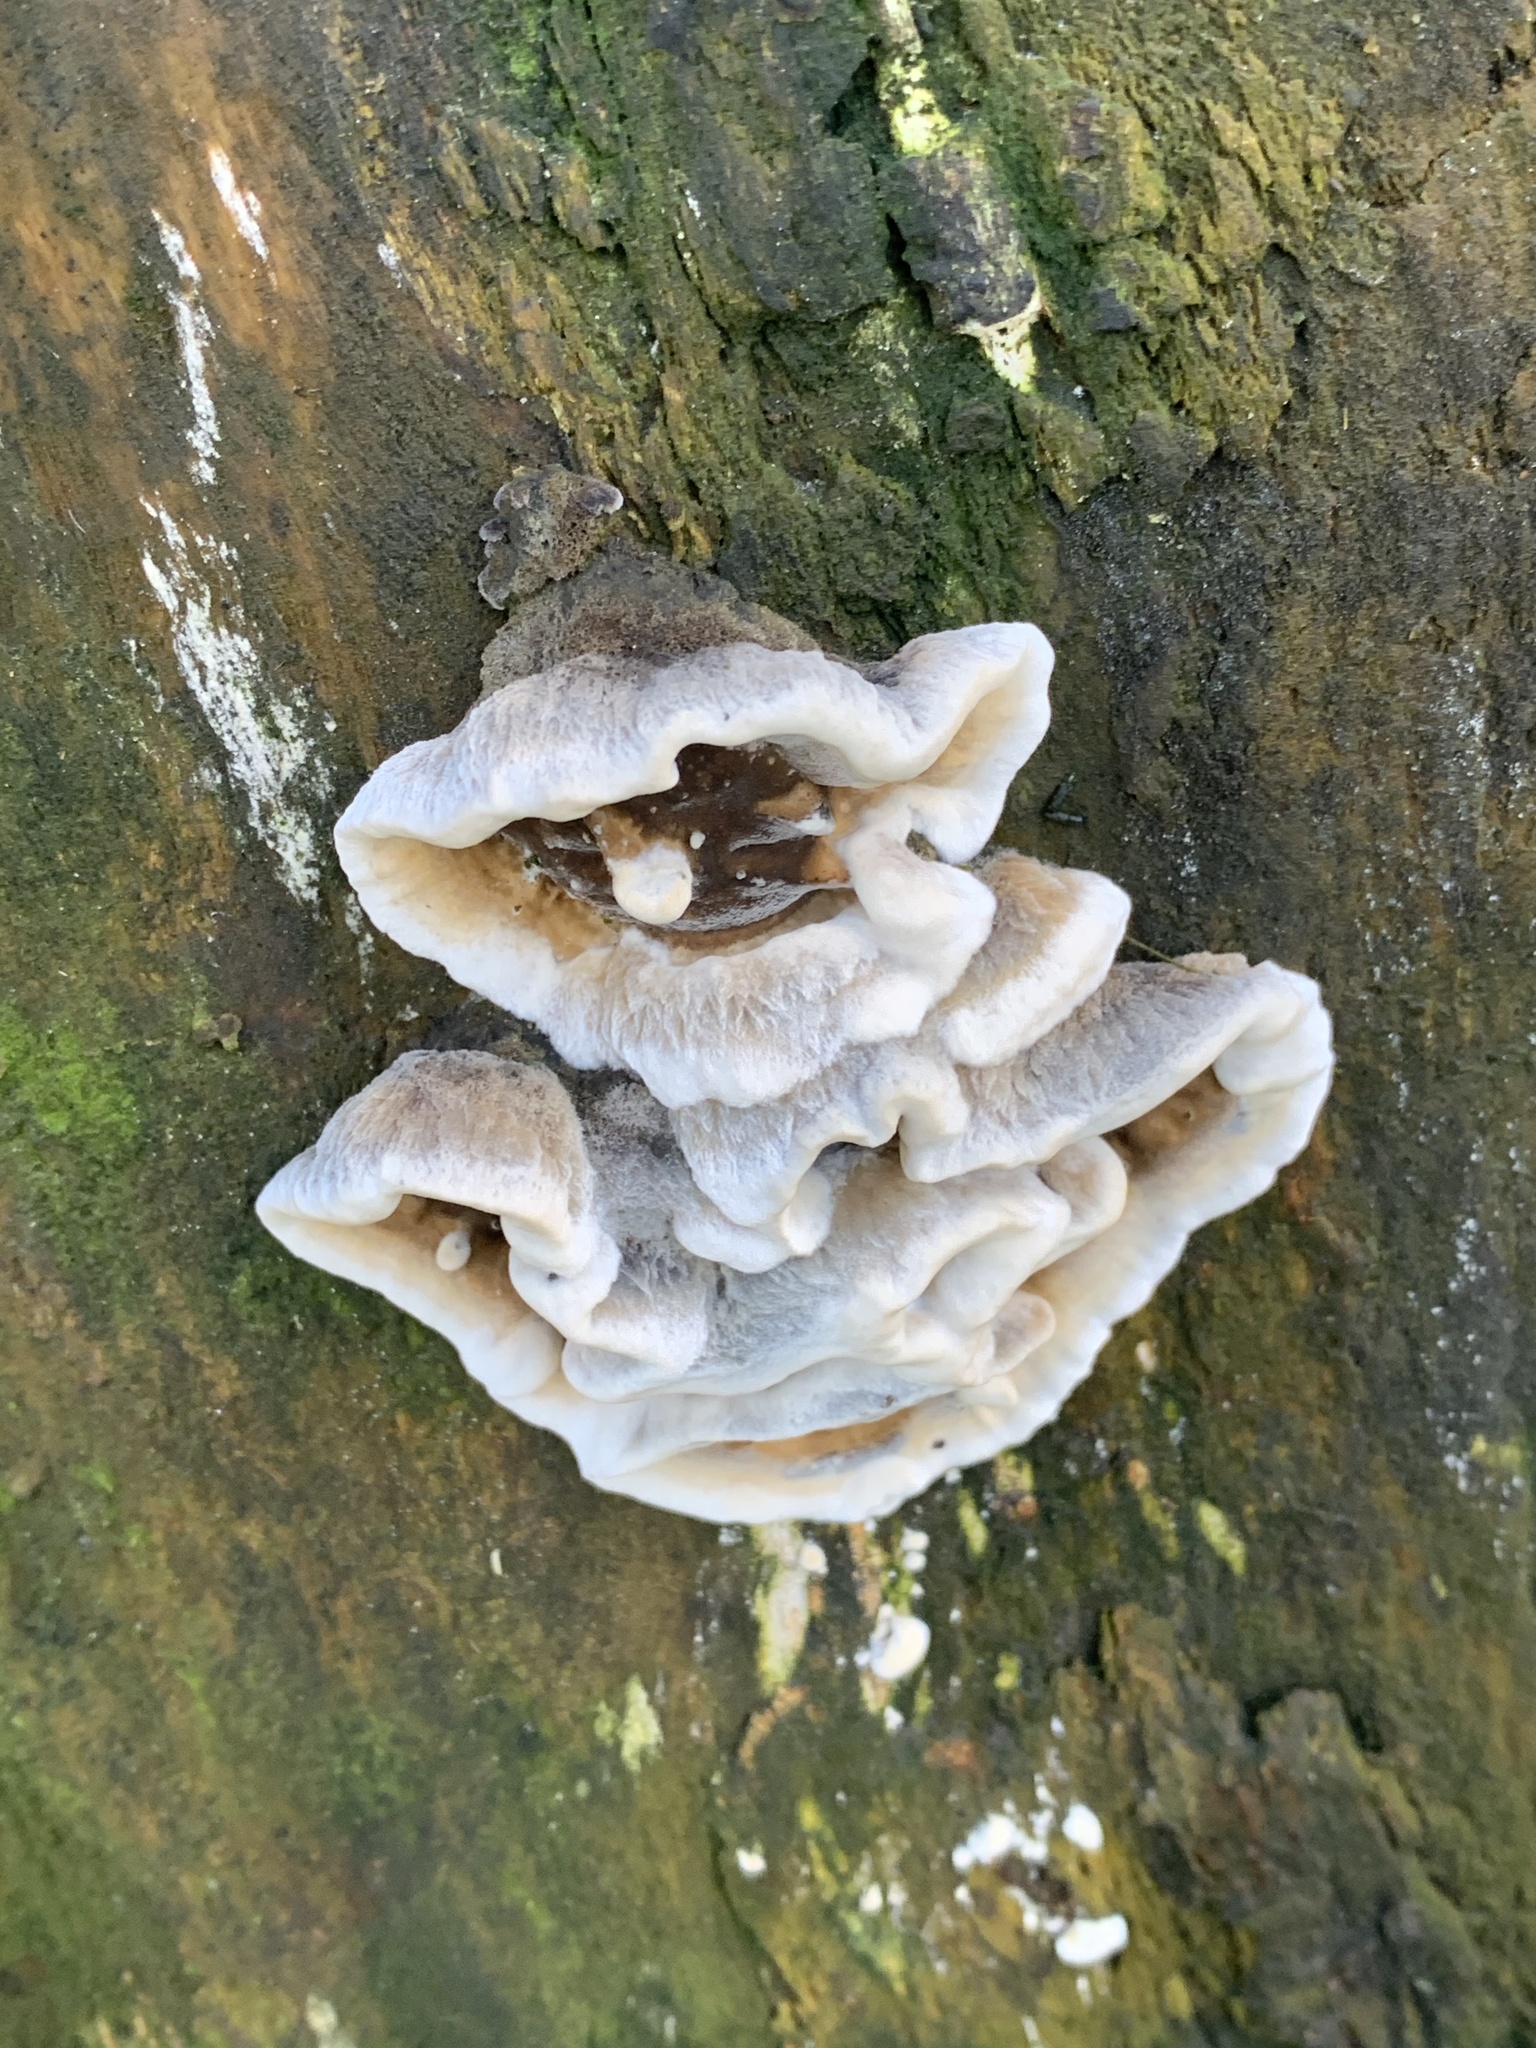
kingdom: Fungi
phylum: Basidiomycota
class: Agaricomycetes
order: Polyporales
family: Phanerochaetaceae
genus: Bjerkandera
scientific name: Bjerkandera adusta
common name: Smoky bracket
